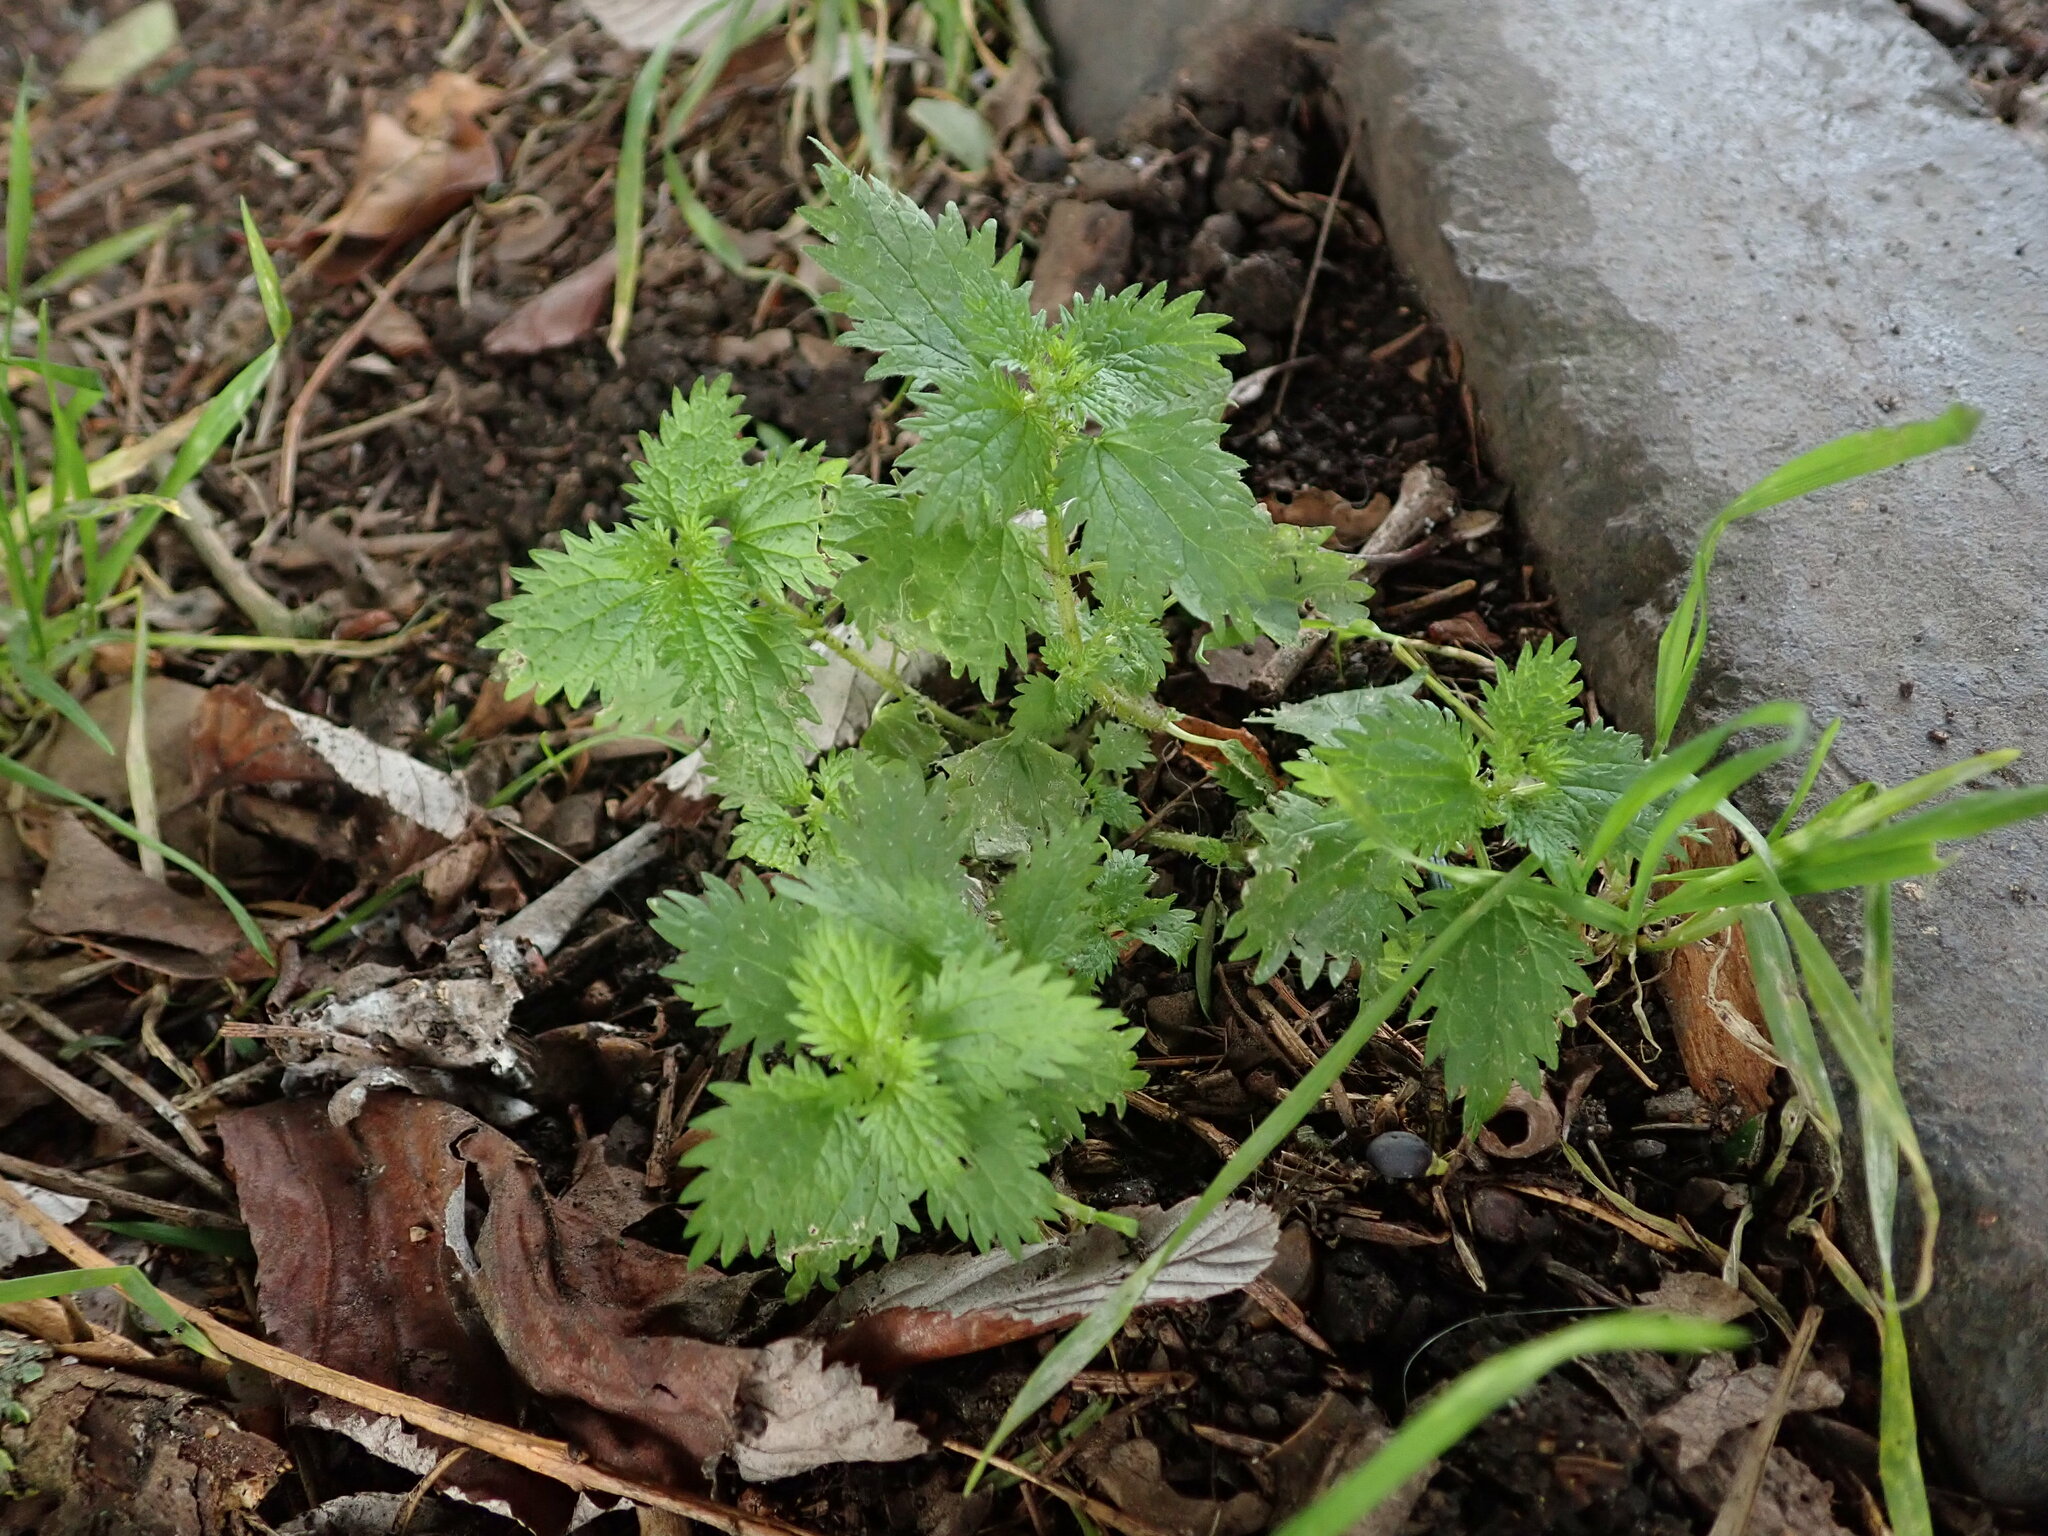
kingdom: Plantae
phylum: Tracheophyta
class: Magnoliopsida
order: Rosales
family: Urticaceae
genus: Urtica
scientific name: Urtica urens
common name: Dwarf nettle
